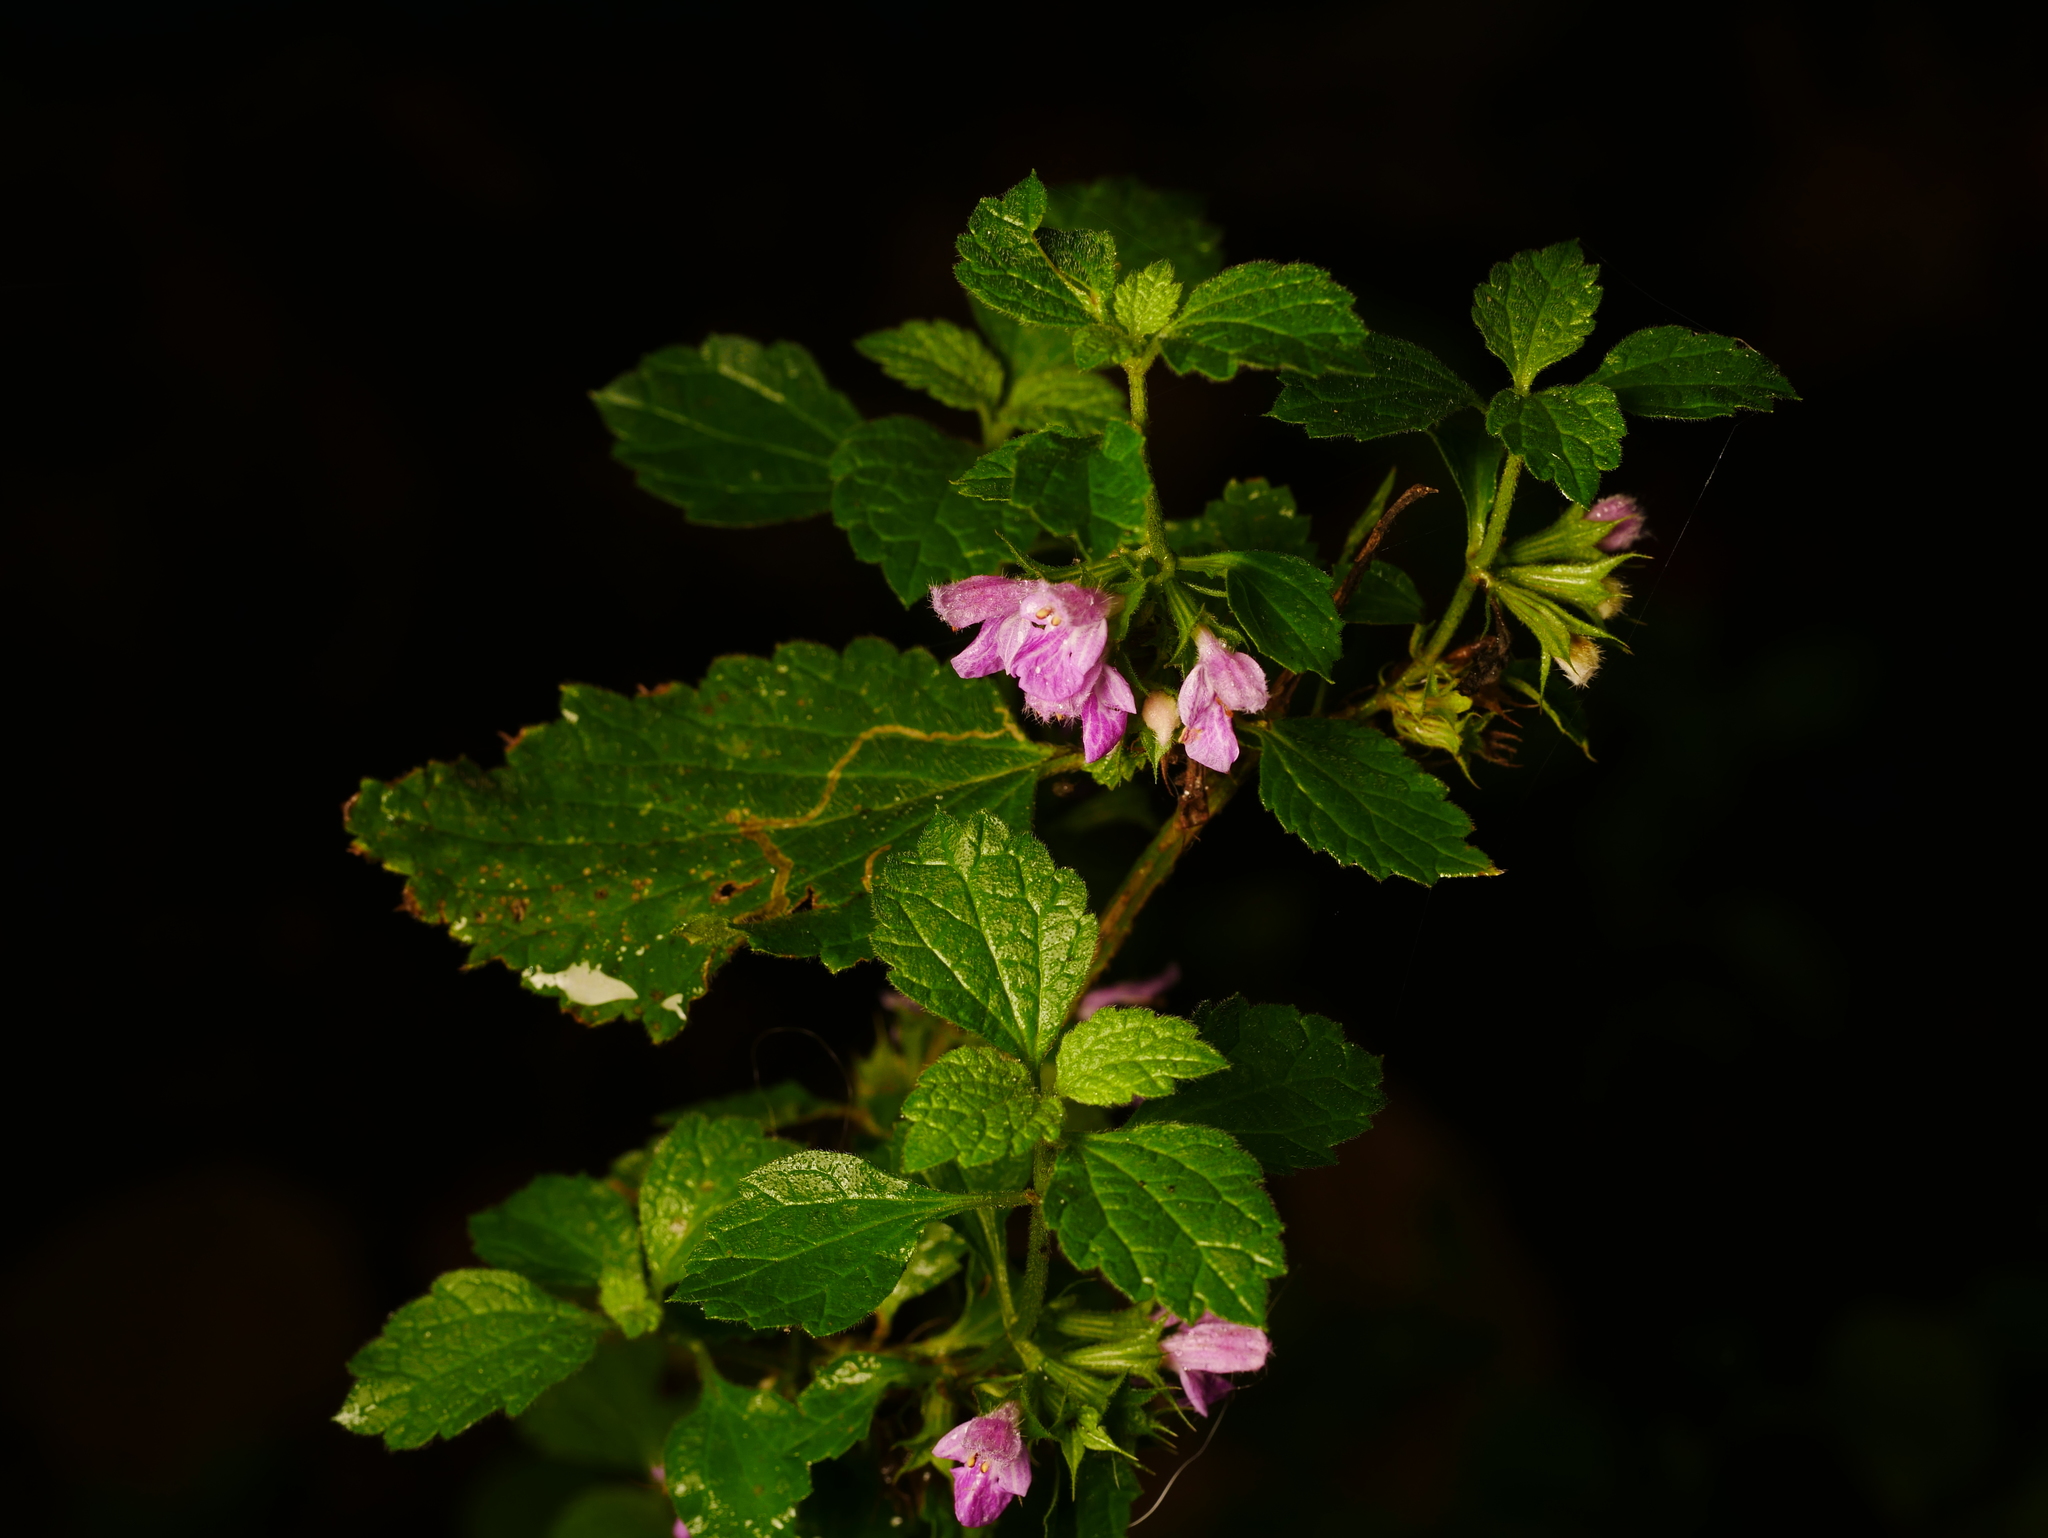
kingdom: Plantae
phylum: Tracheophyta
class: Magnoliopsida
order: Lamiales
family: Lamiaceae
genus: Ballota
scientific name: Ballota nigra
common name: Black horehound
